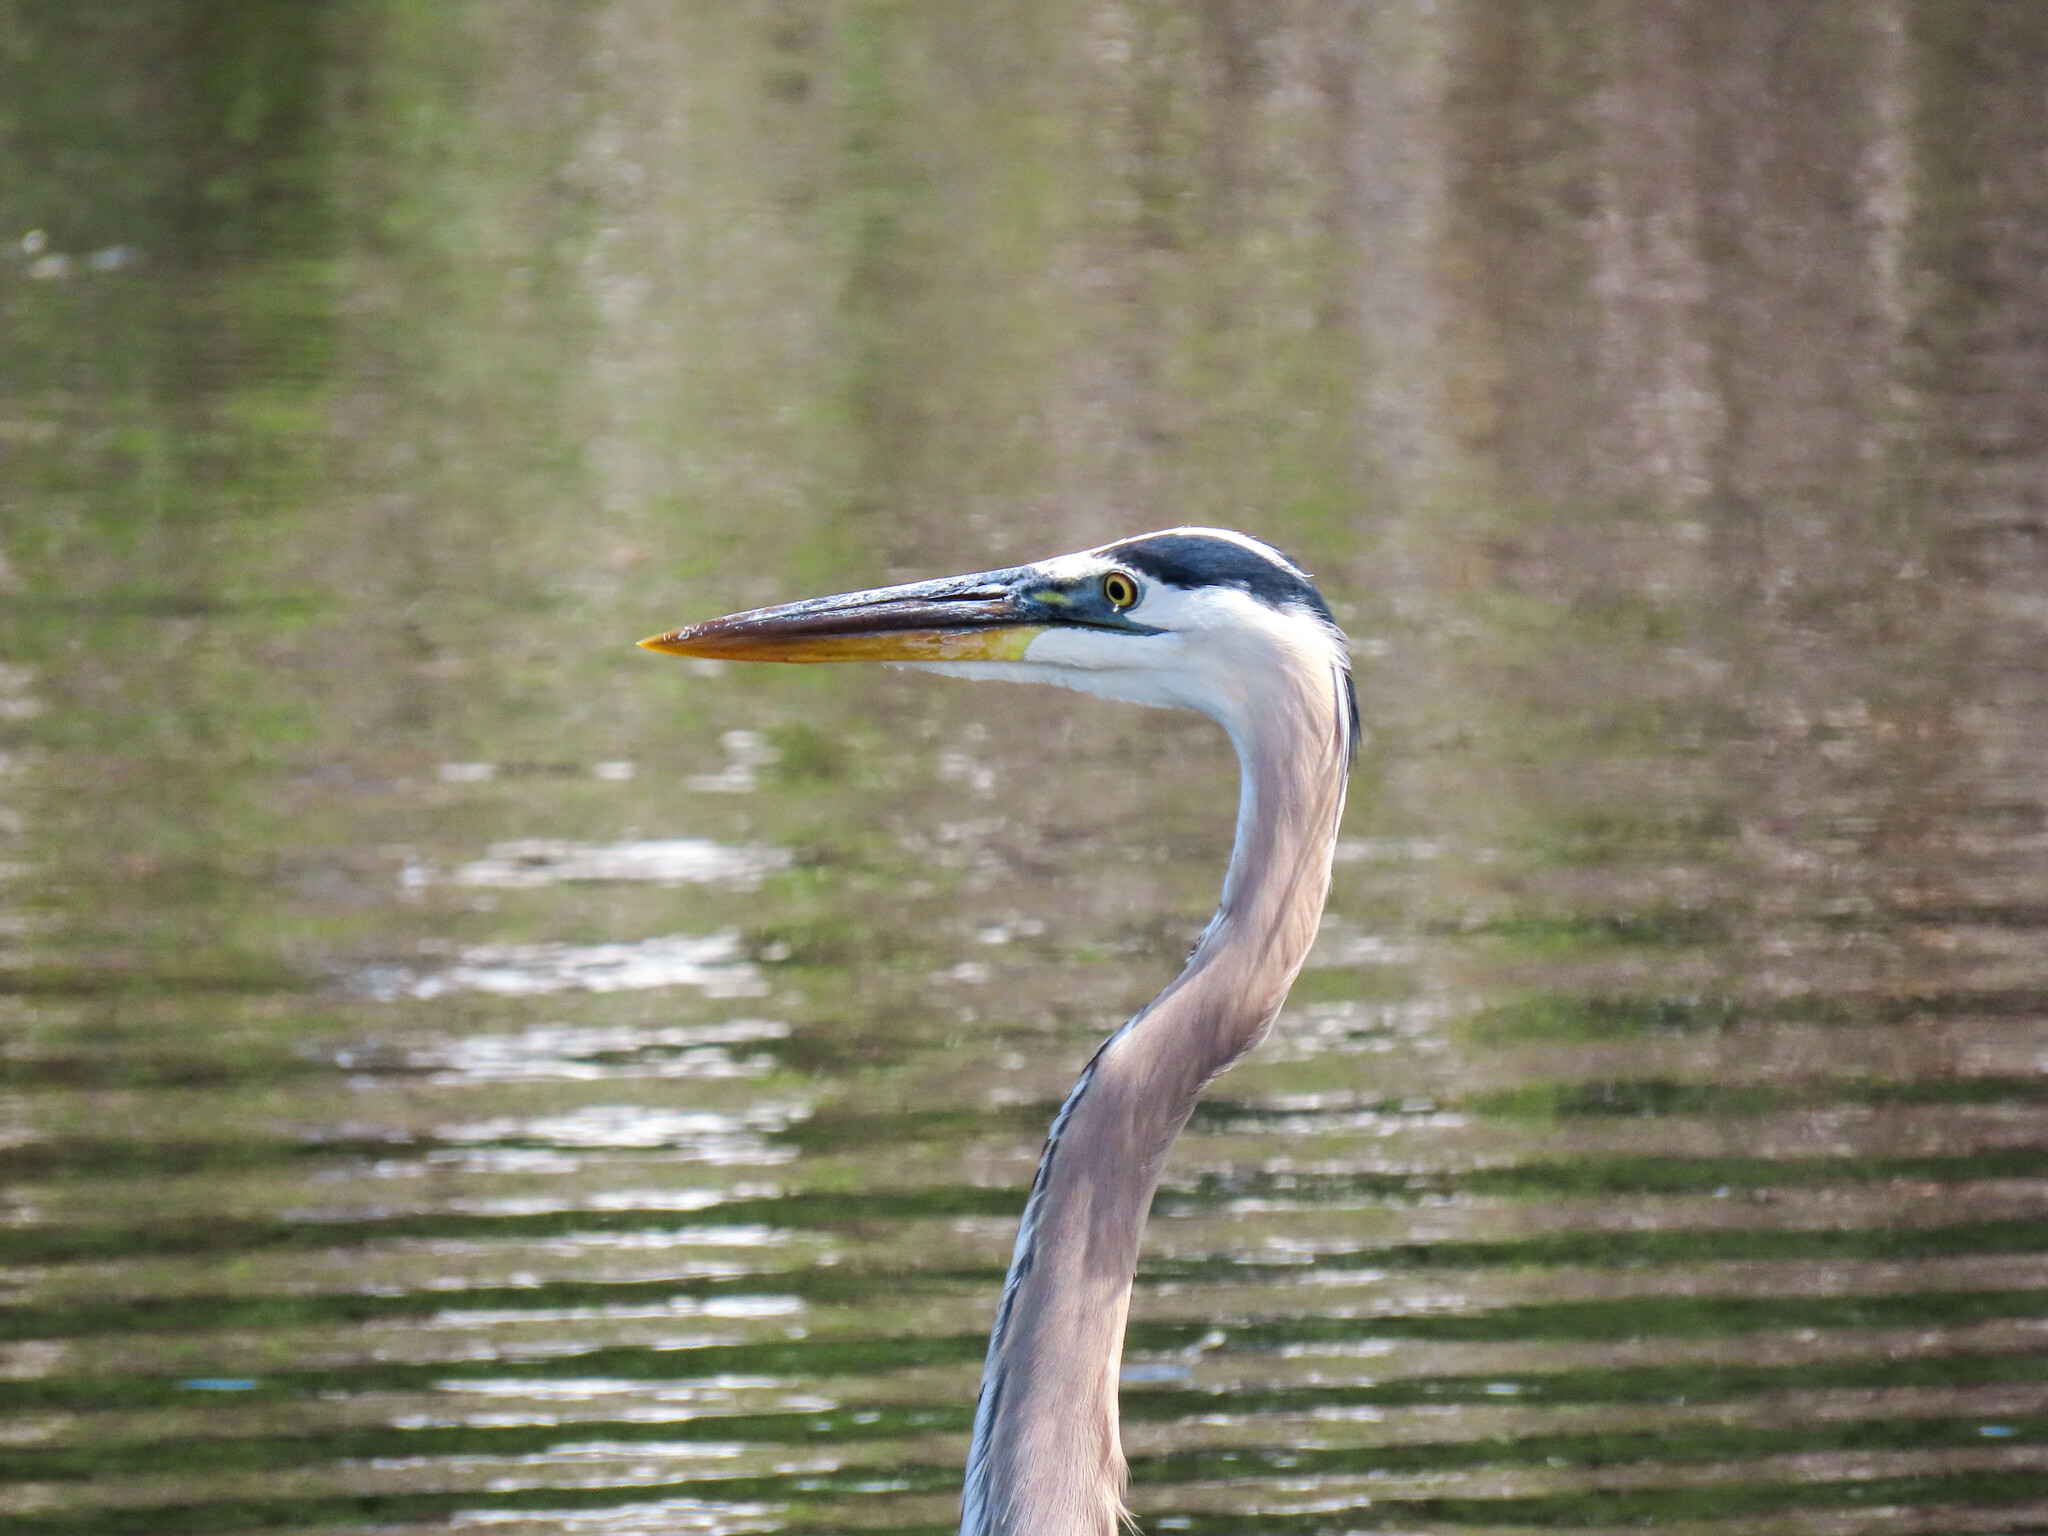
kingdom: Animalia
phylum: Chordata
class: Aves
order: Pelecaniformes
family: Ardeidae
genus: Ardea
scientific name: Ardea herodias
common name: Great blue heron
